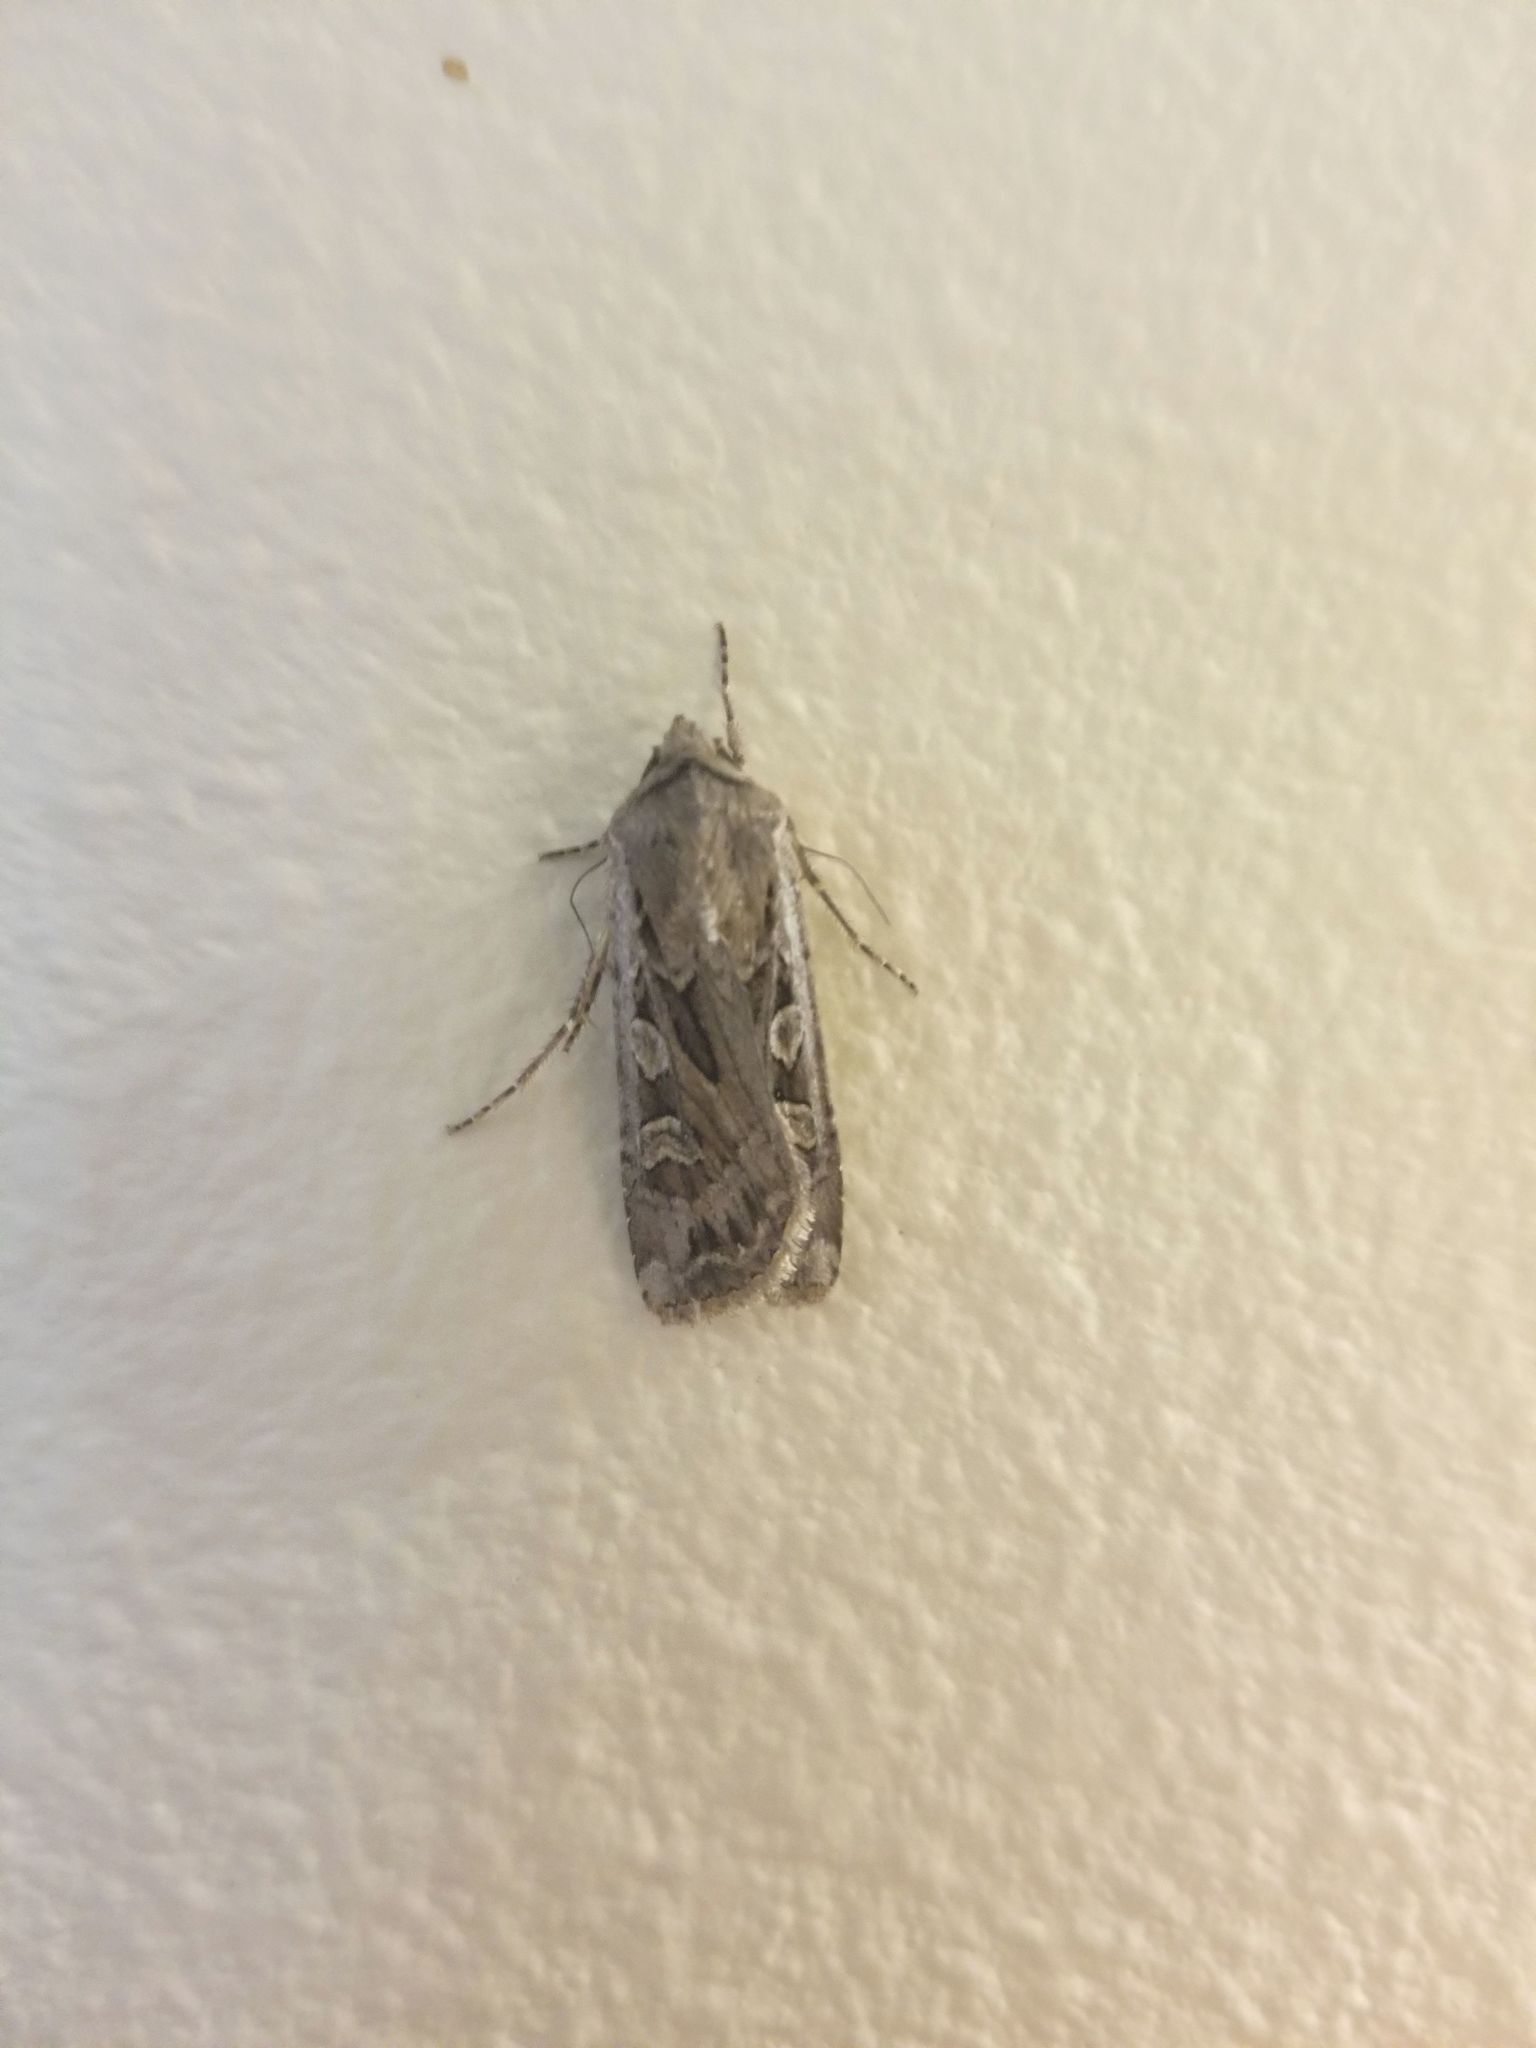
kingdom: Animalia
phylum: Arthropoda
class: Insecta
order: Lepidoptera
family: Noctuidae
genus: Euxoa
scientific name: Euxoa auxiliaris
